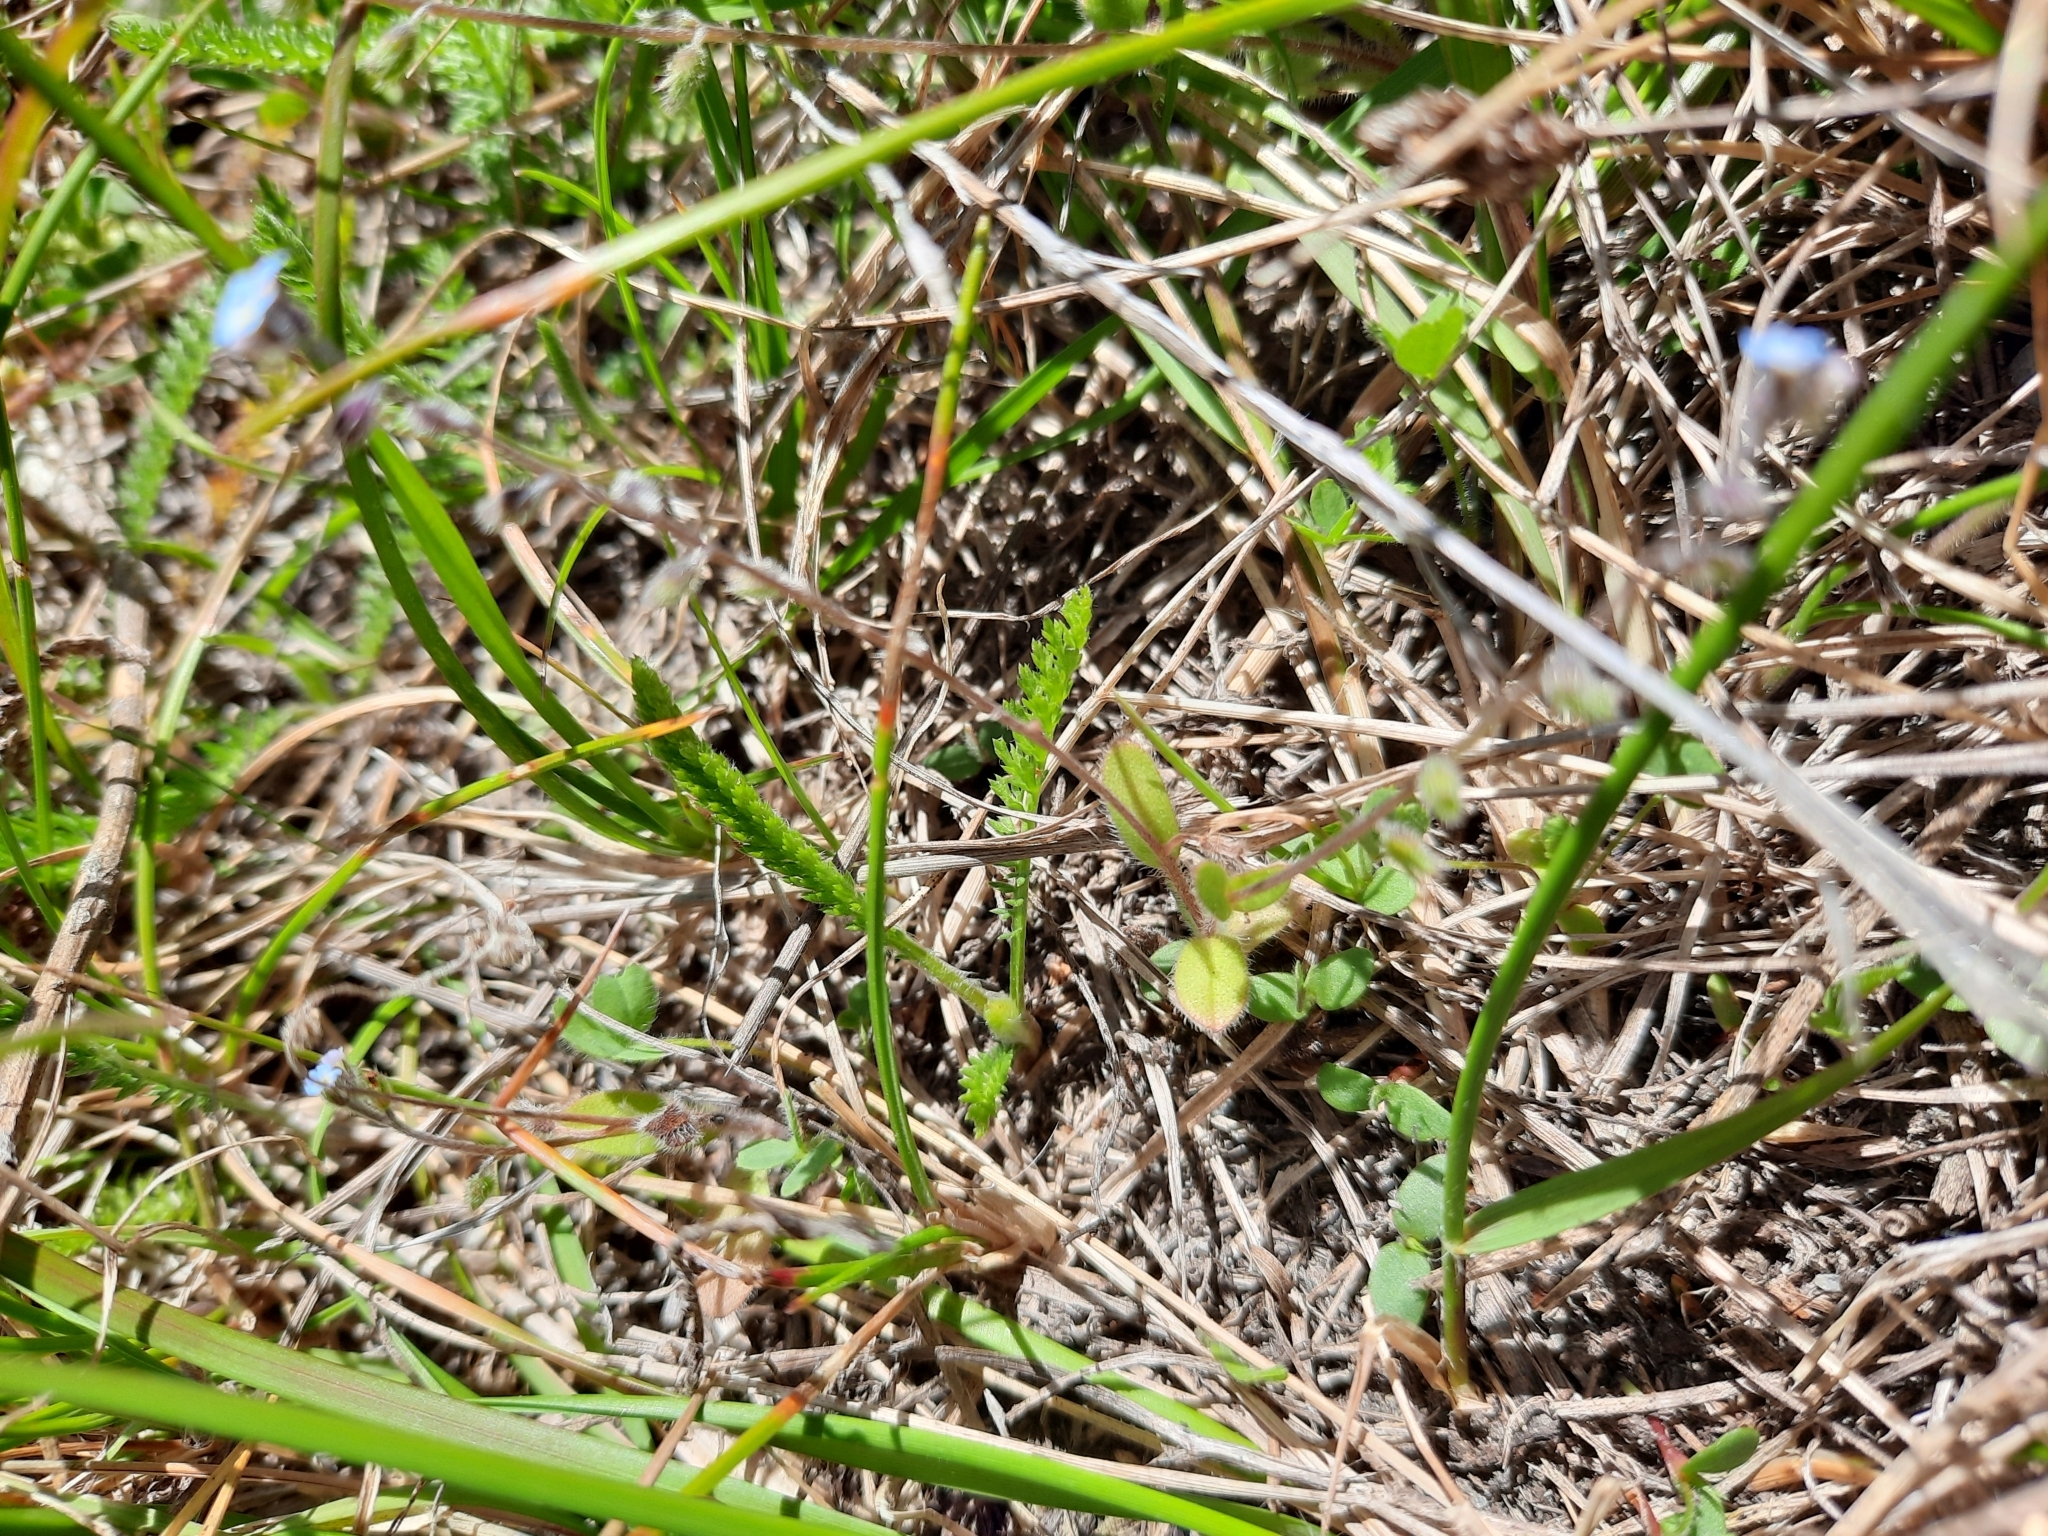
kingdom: Plantae
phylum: Tracheophyta
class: Magnoliopsida
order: Boraginales
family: Boraginaceae
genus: Myosotis
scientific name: Myosotis discolor
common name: Changing forget-me-not
